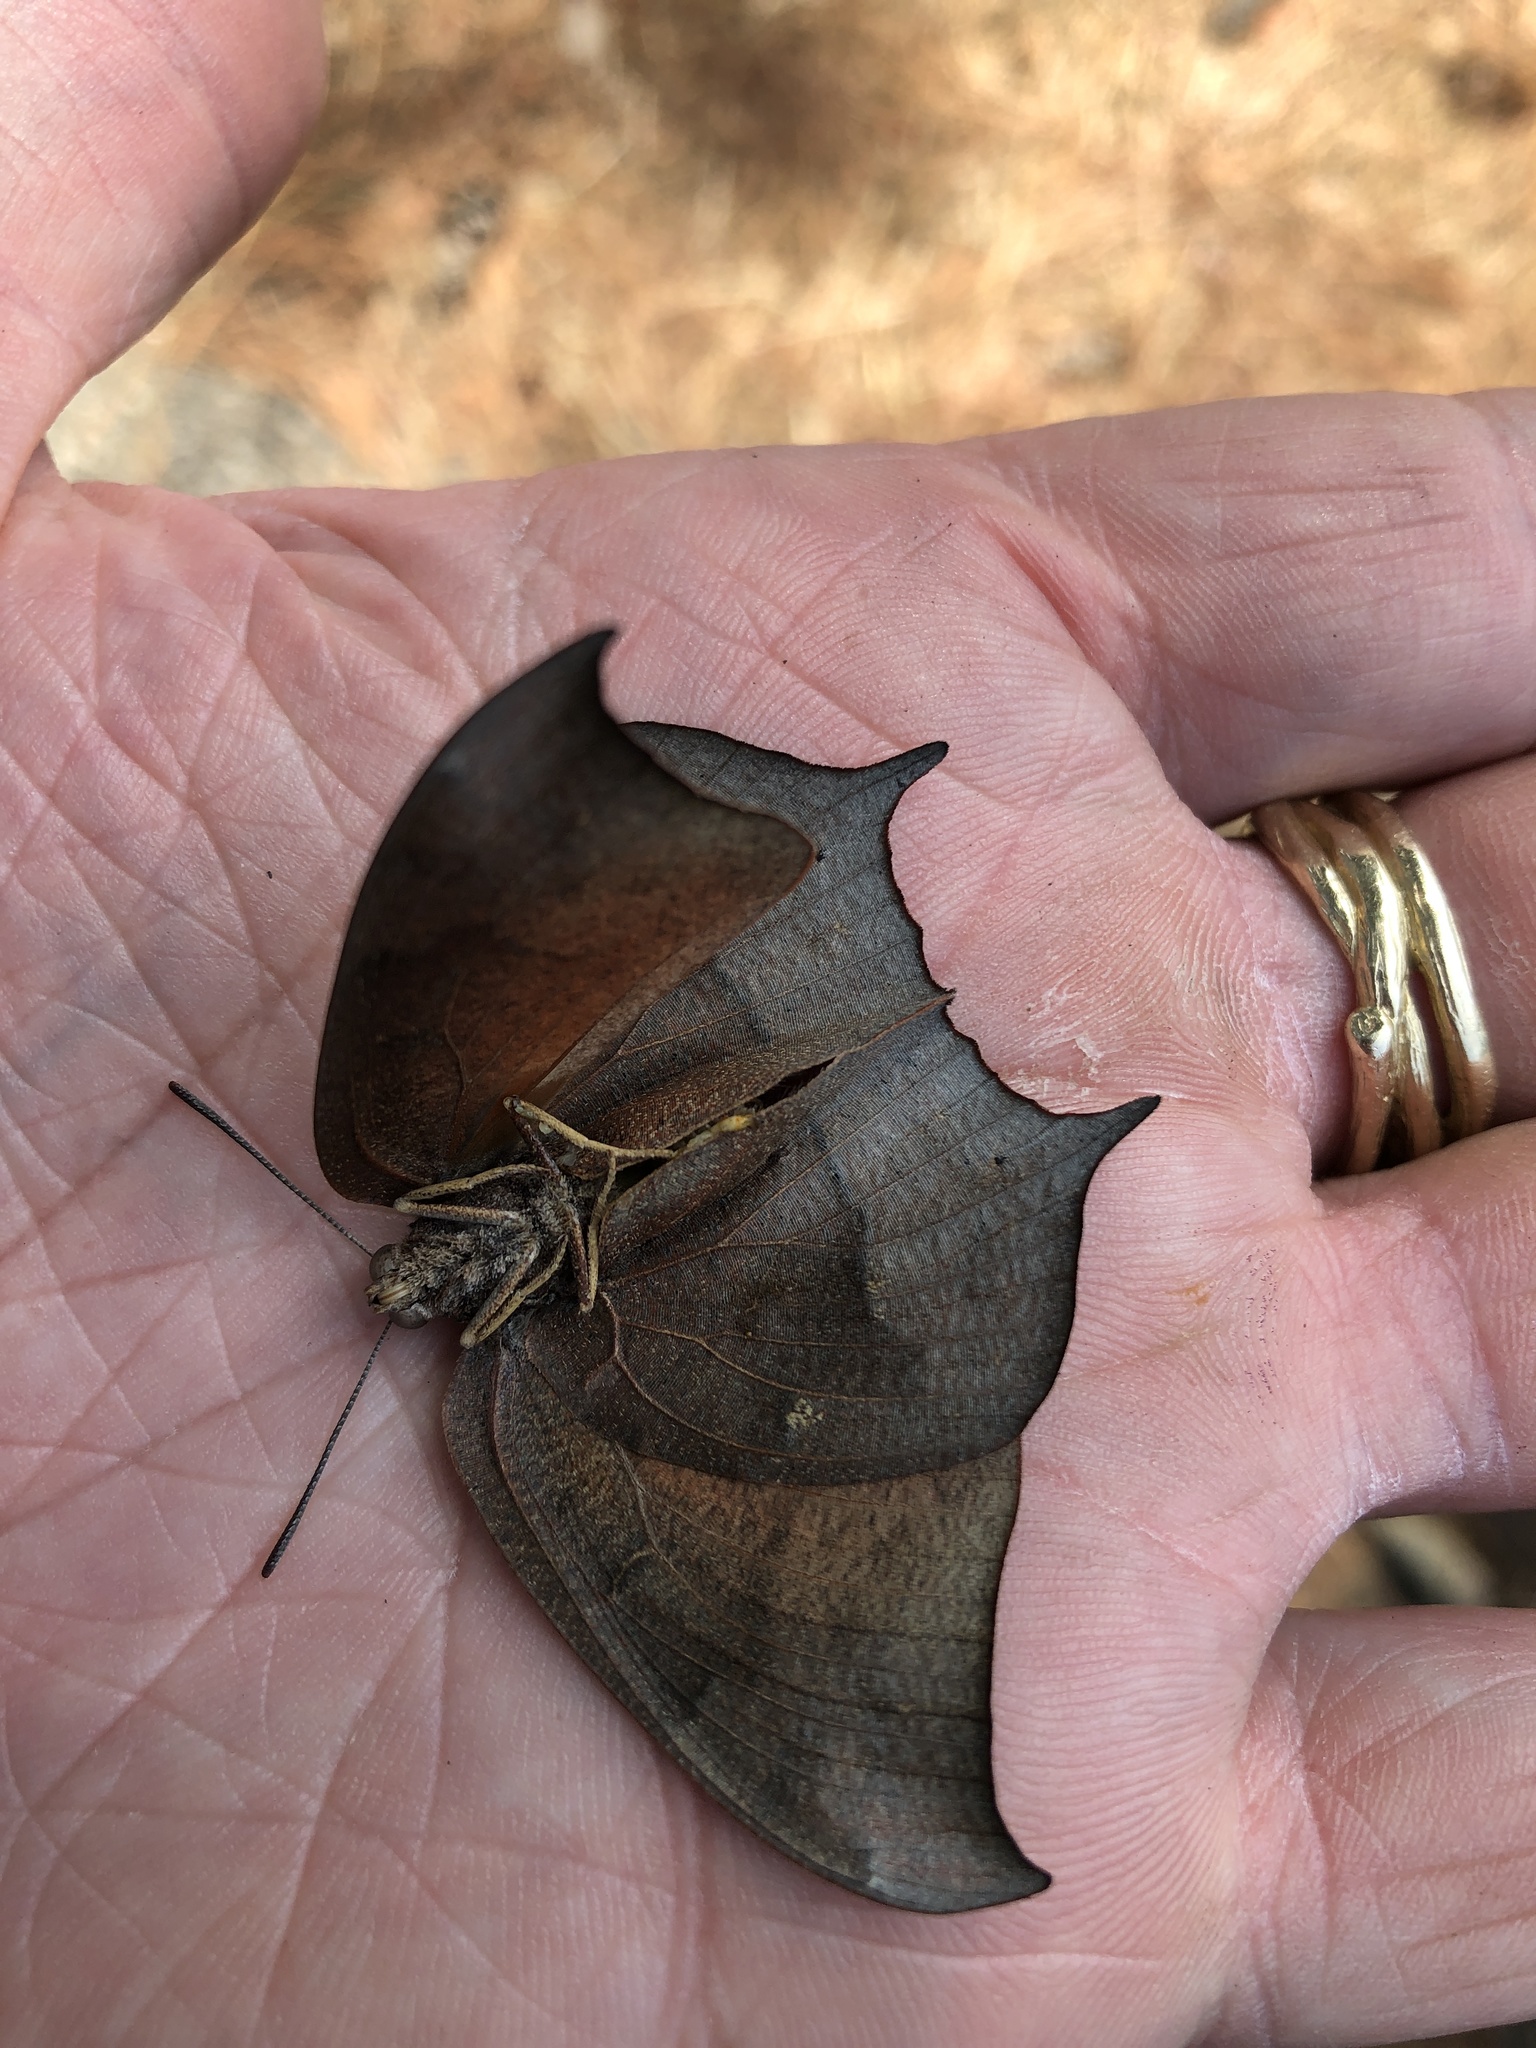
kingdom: Animalia
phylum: Arthropoda
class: Insecta
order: Lepidoptera
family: Nymphalidae
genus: Anaea
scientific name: Anaea andria
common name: Goatweed leafwing
